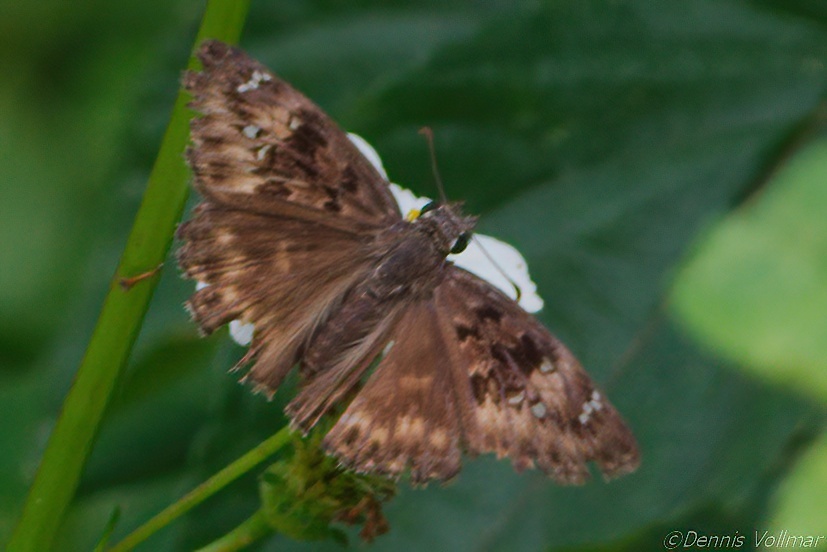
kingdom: Animalia
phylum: Arthropoda
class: Insecta
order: Lepidoptera
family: Hesperiidae
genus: Erynnis
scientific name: Erynnis horatius
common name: Horace's duskywing
